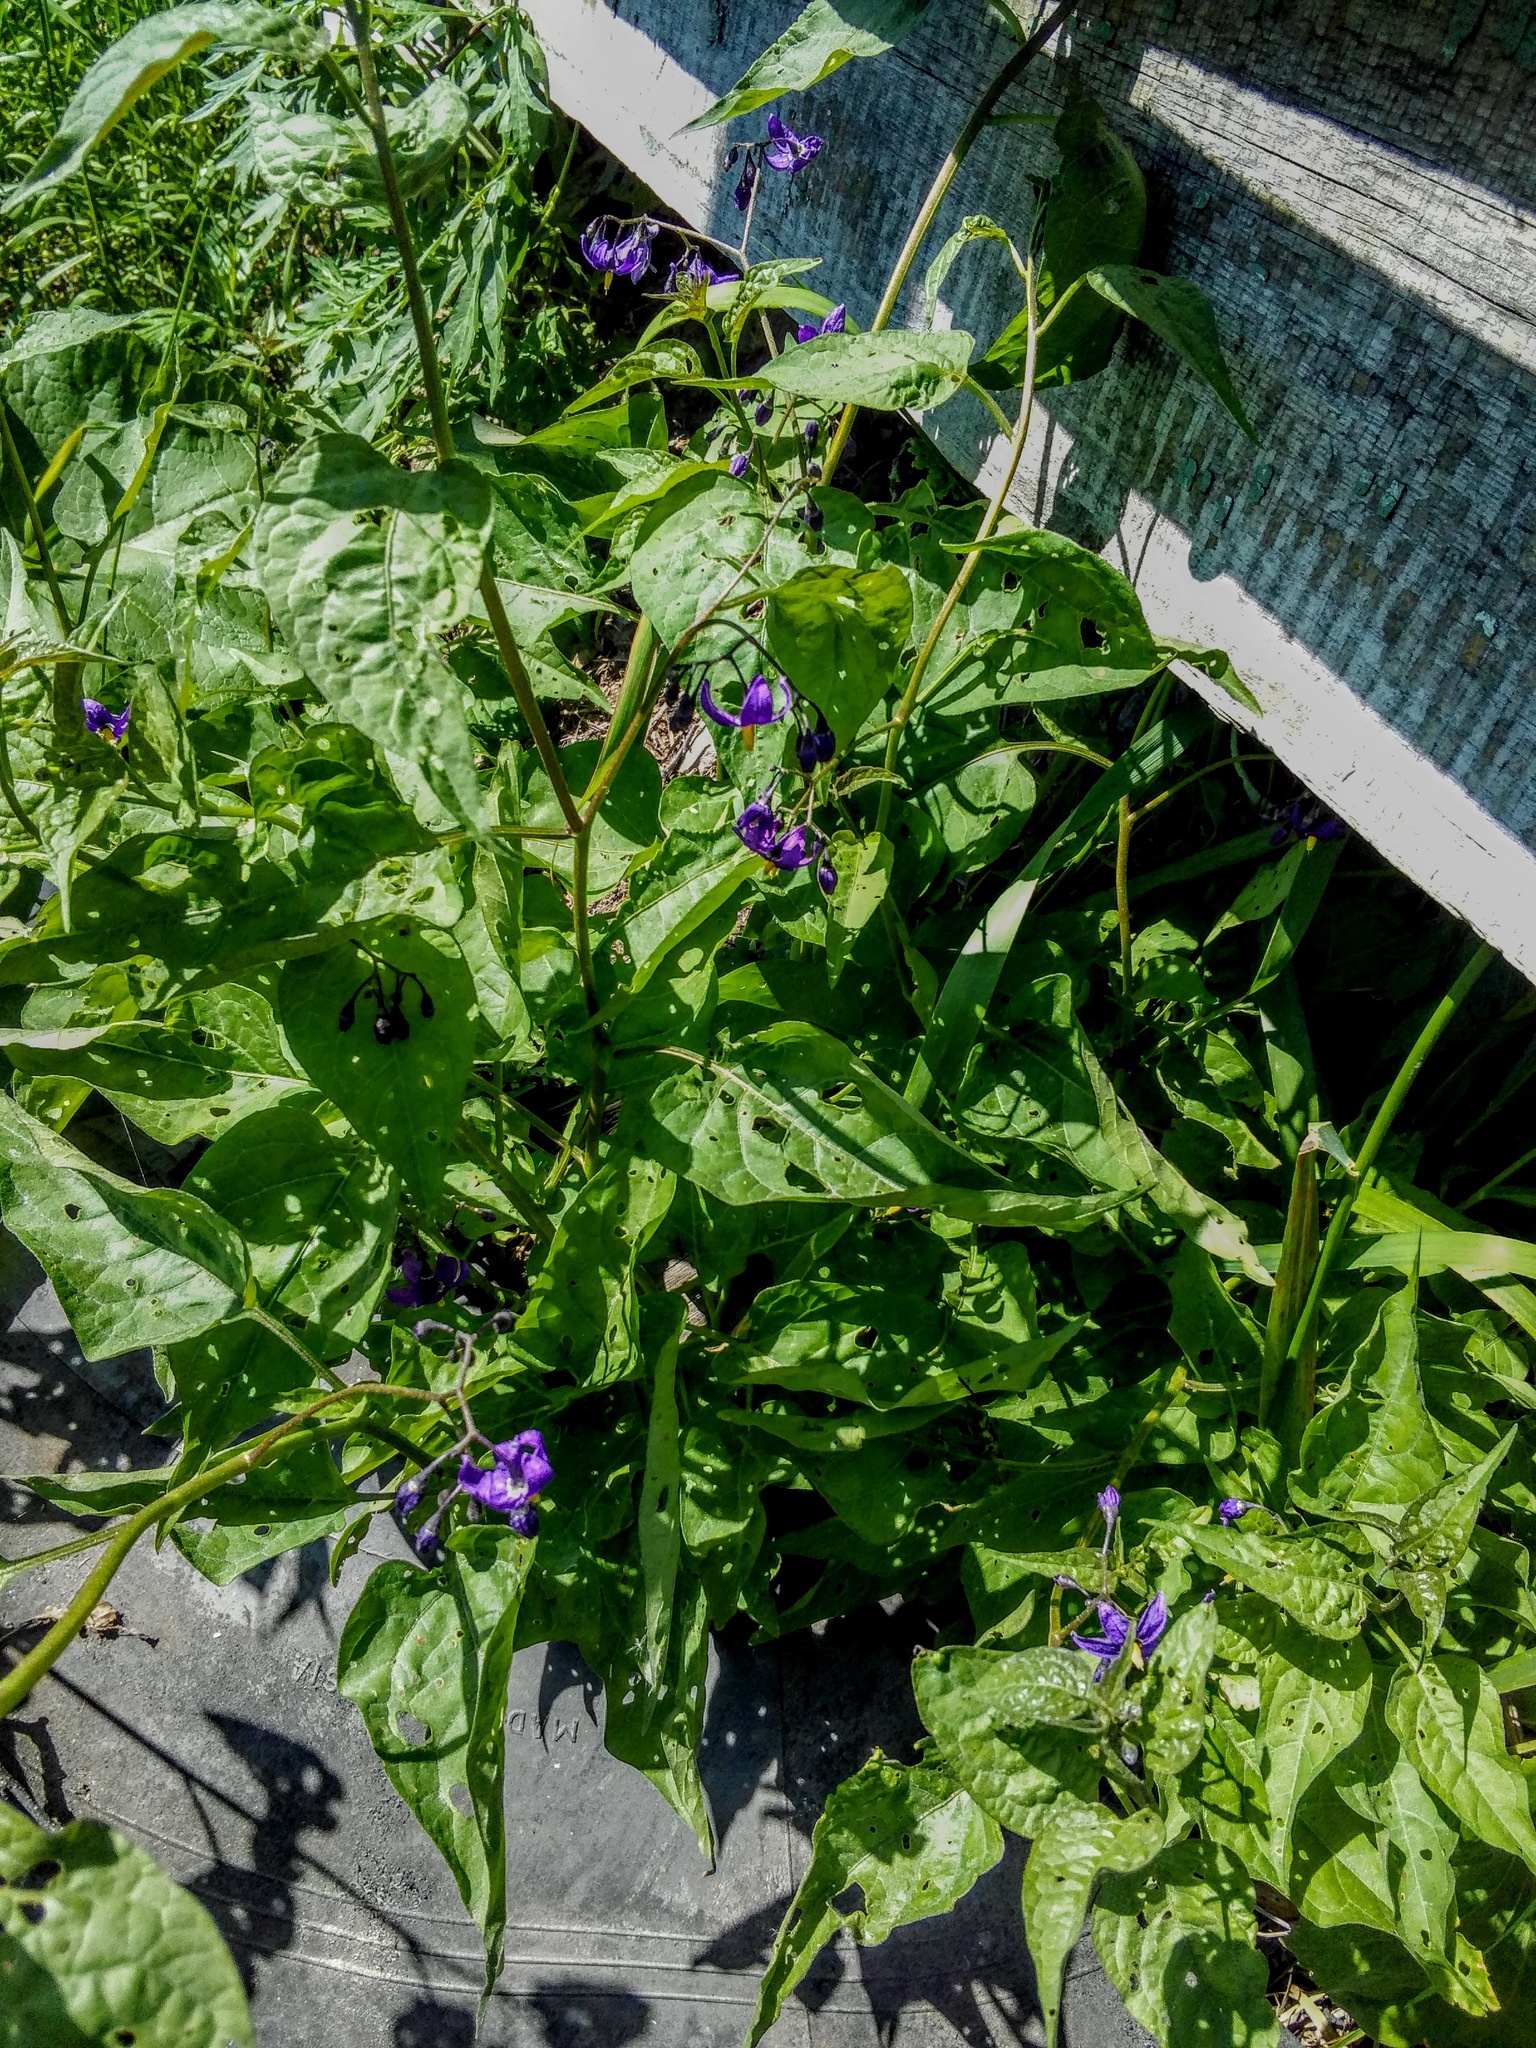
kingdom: Plantae
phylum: Tracheophyta
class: Magnoliopsida
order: Solanales
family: Solanaceae
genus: Solanum
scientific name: Solanum dulcamara
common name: Climbing nightshade
